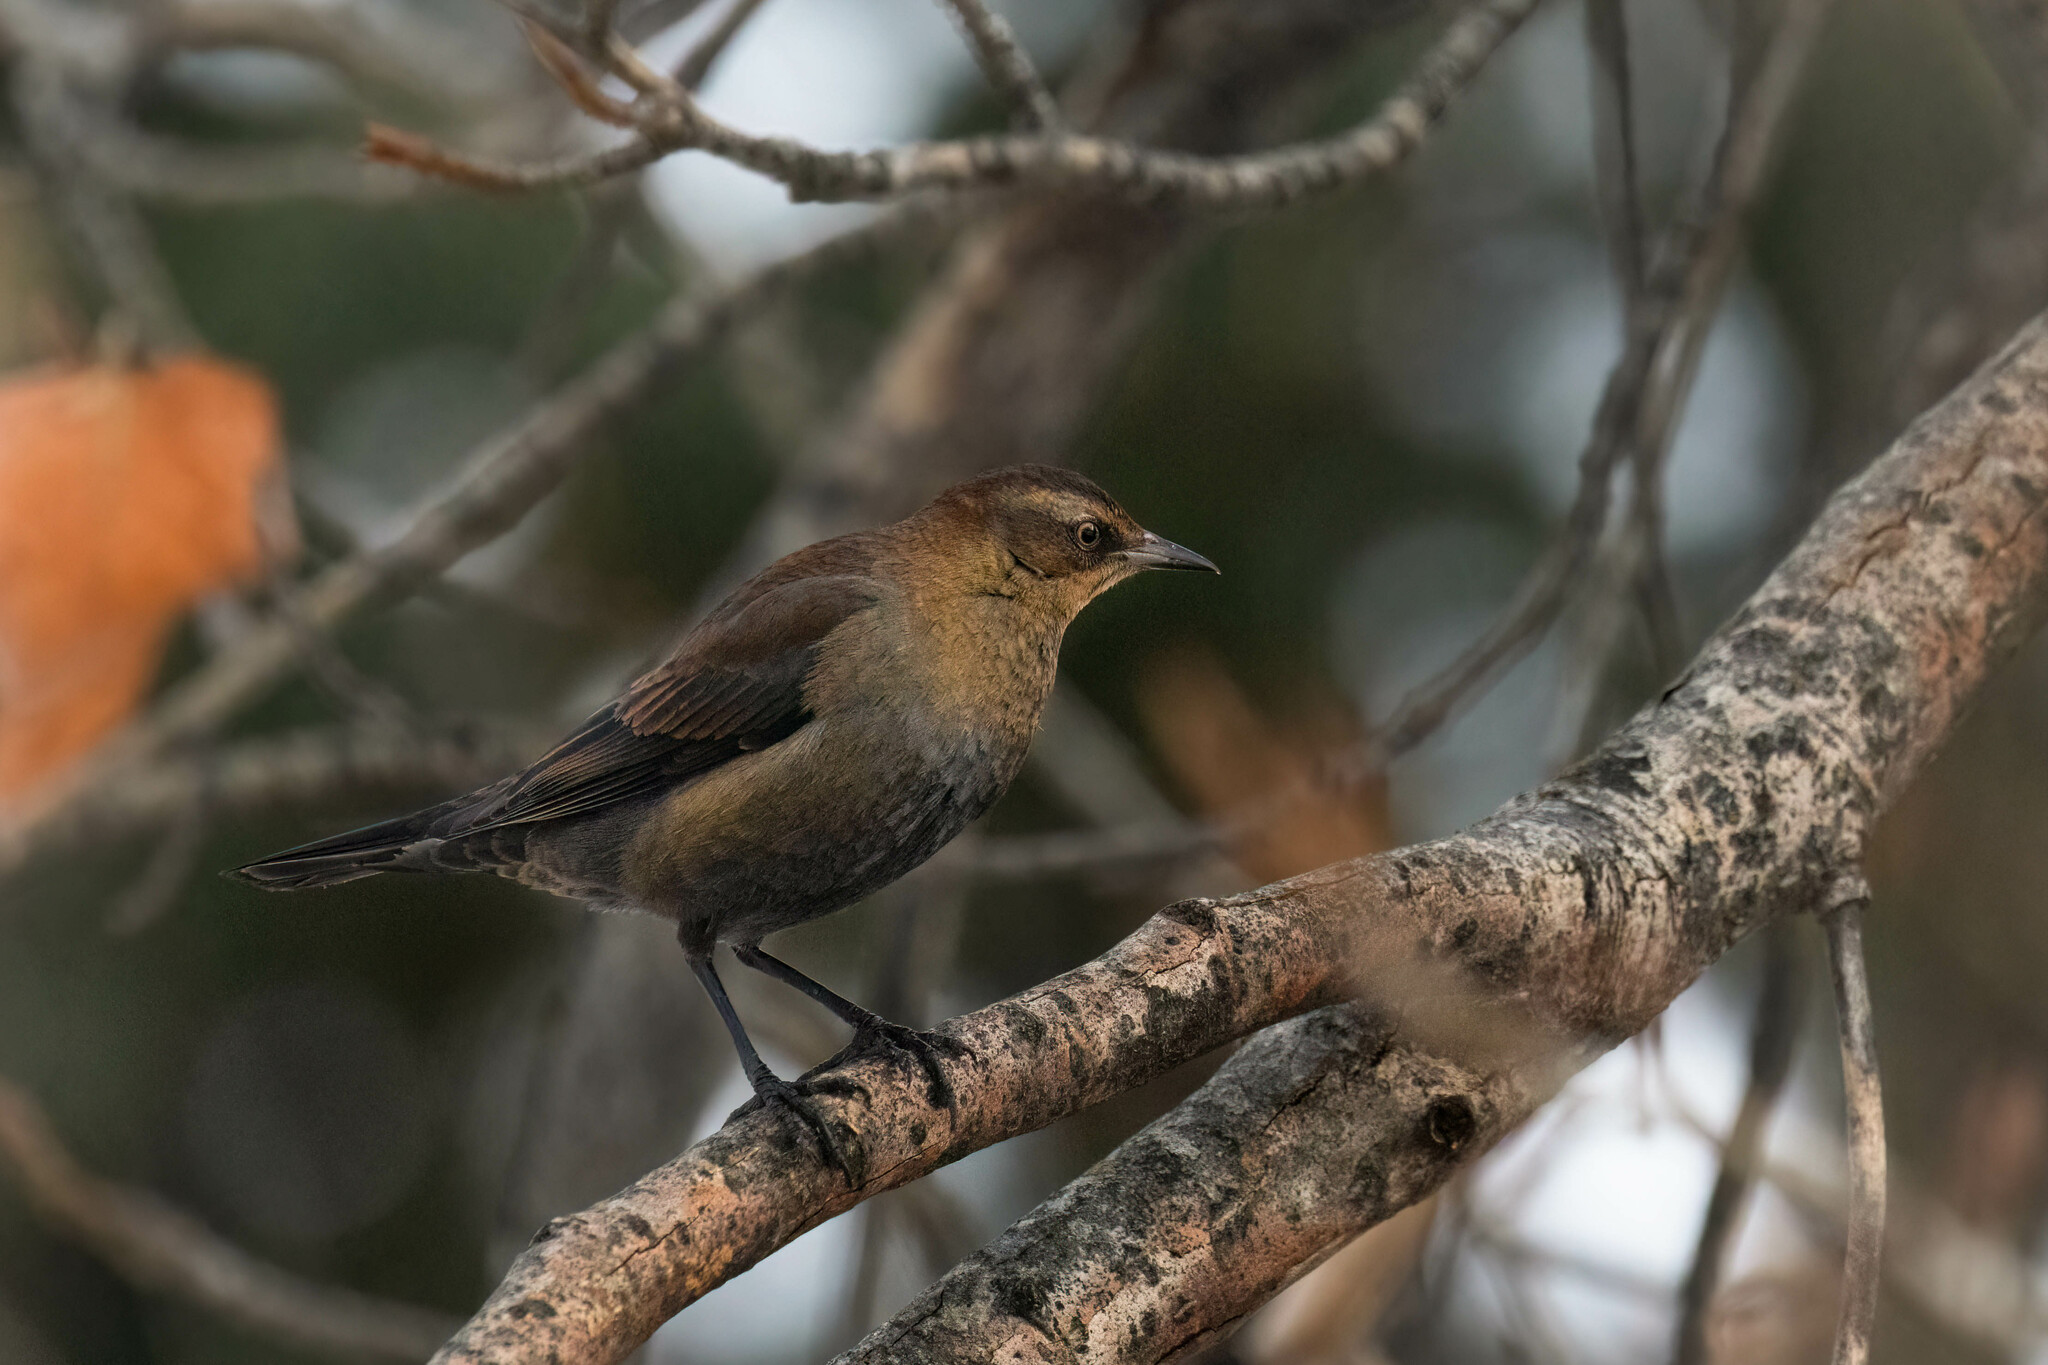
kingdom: Animalia
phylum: Chordata
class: Aves
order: Passeriformes
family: Icteridae
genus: Euphagus
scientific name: Euphagus carolinus
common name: Rusty blackbird
